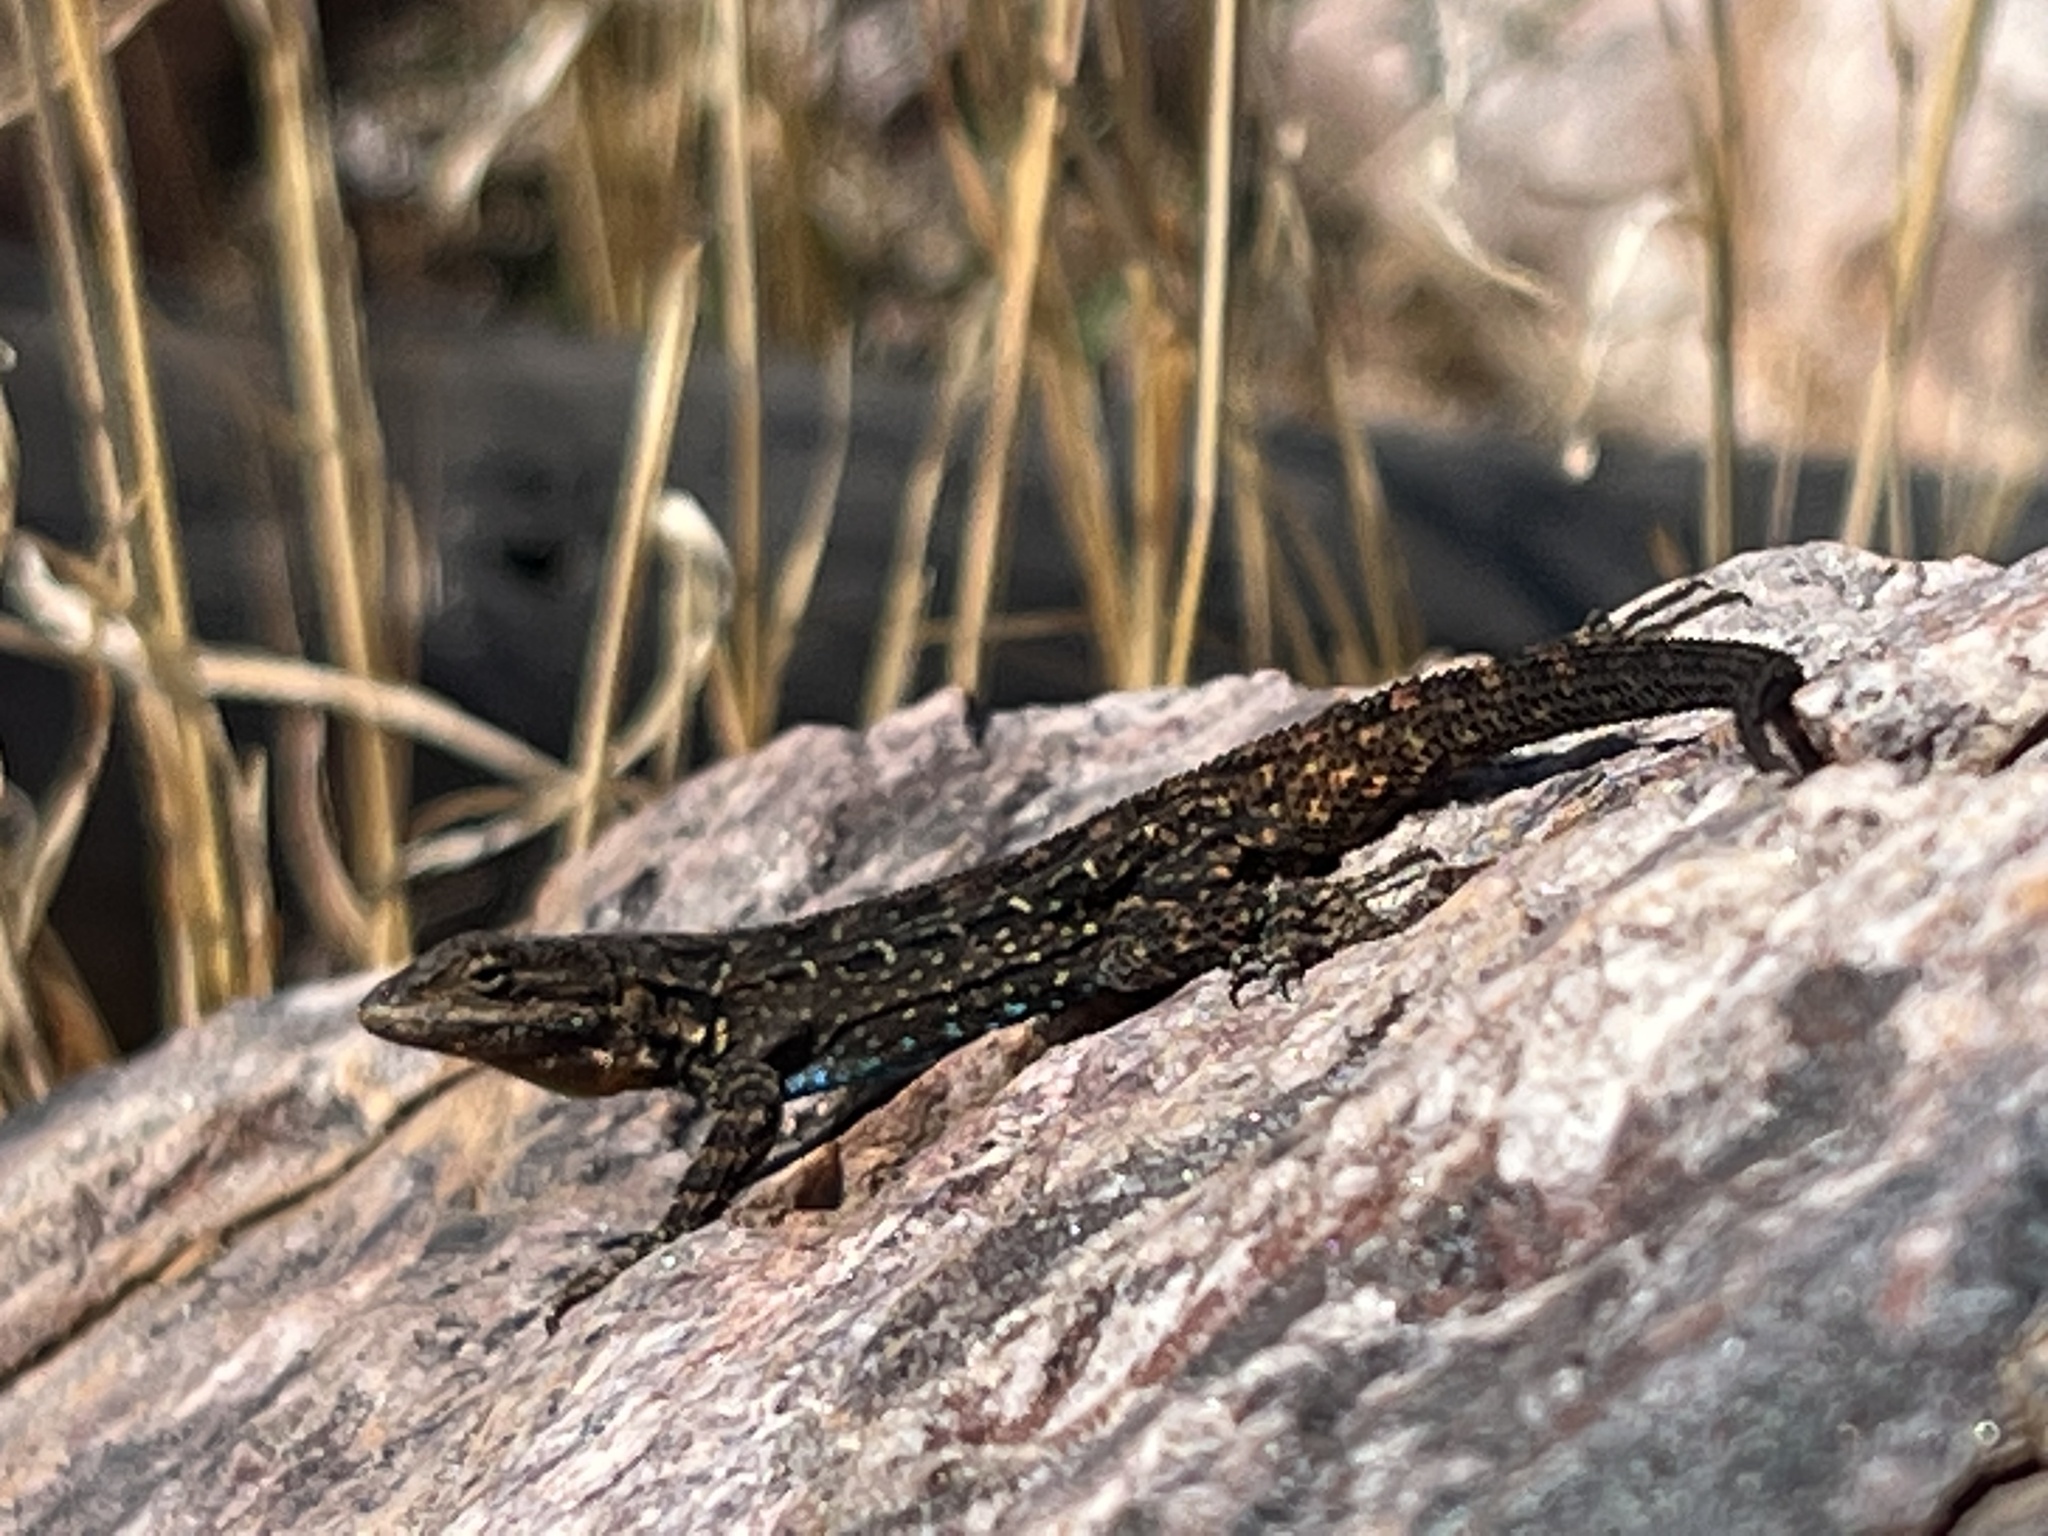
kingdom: Animalia
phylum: Chordata
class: Squamata
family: Phrynosomatidae
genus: Urosaurus
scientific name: Urosaurus ornatus
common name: Ornate tree lizard
